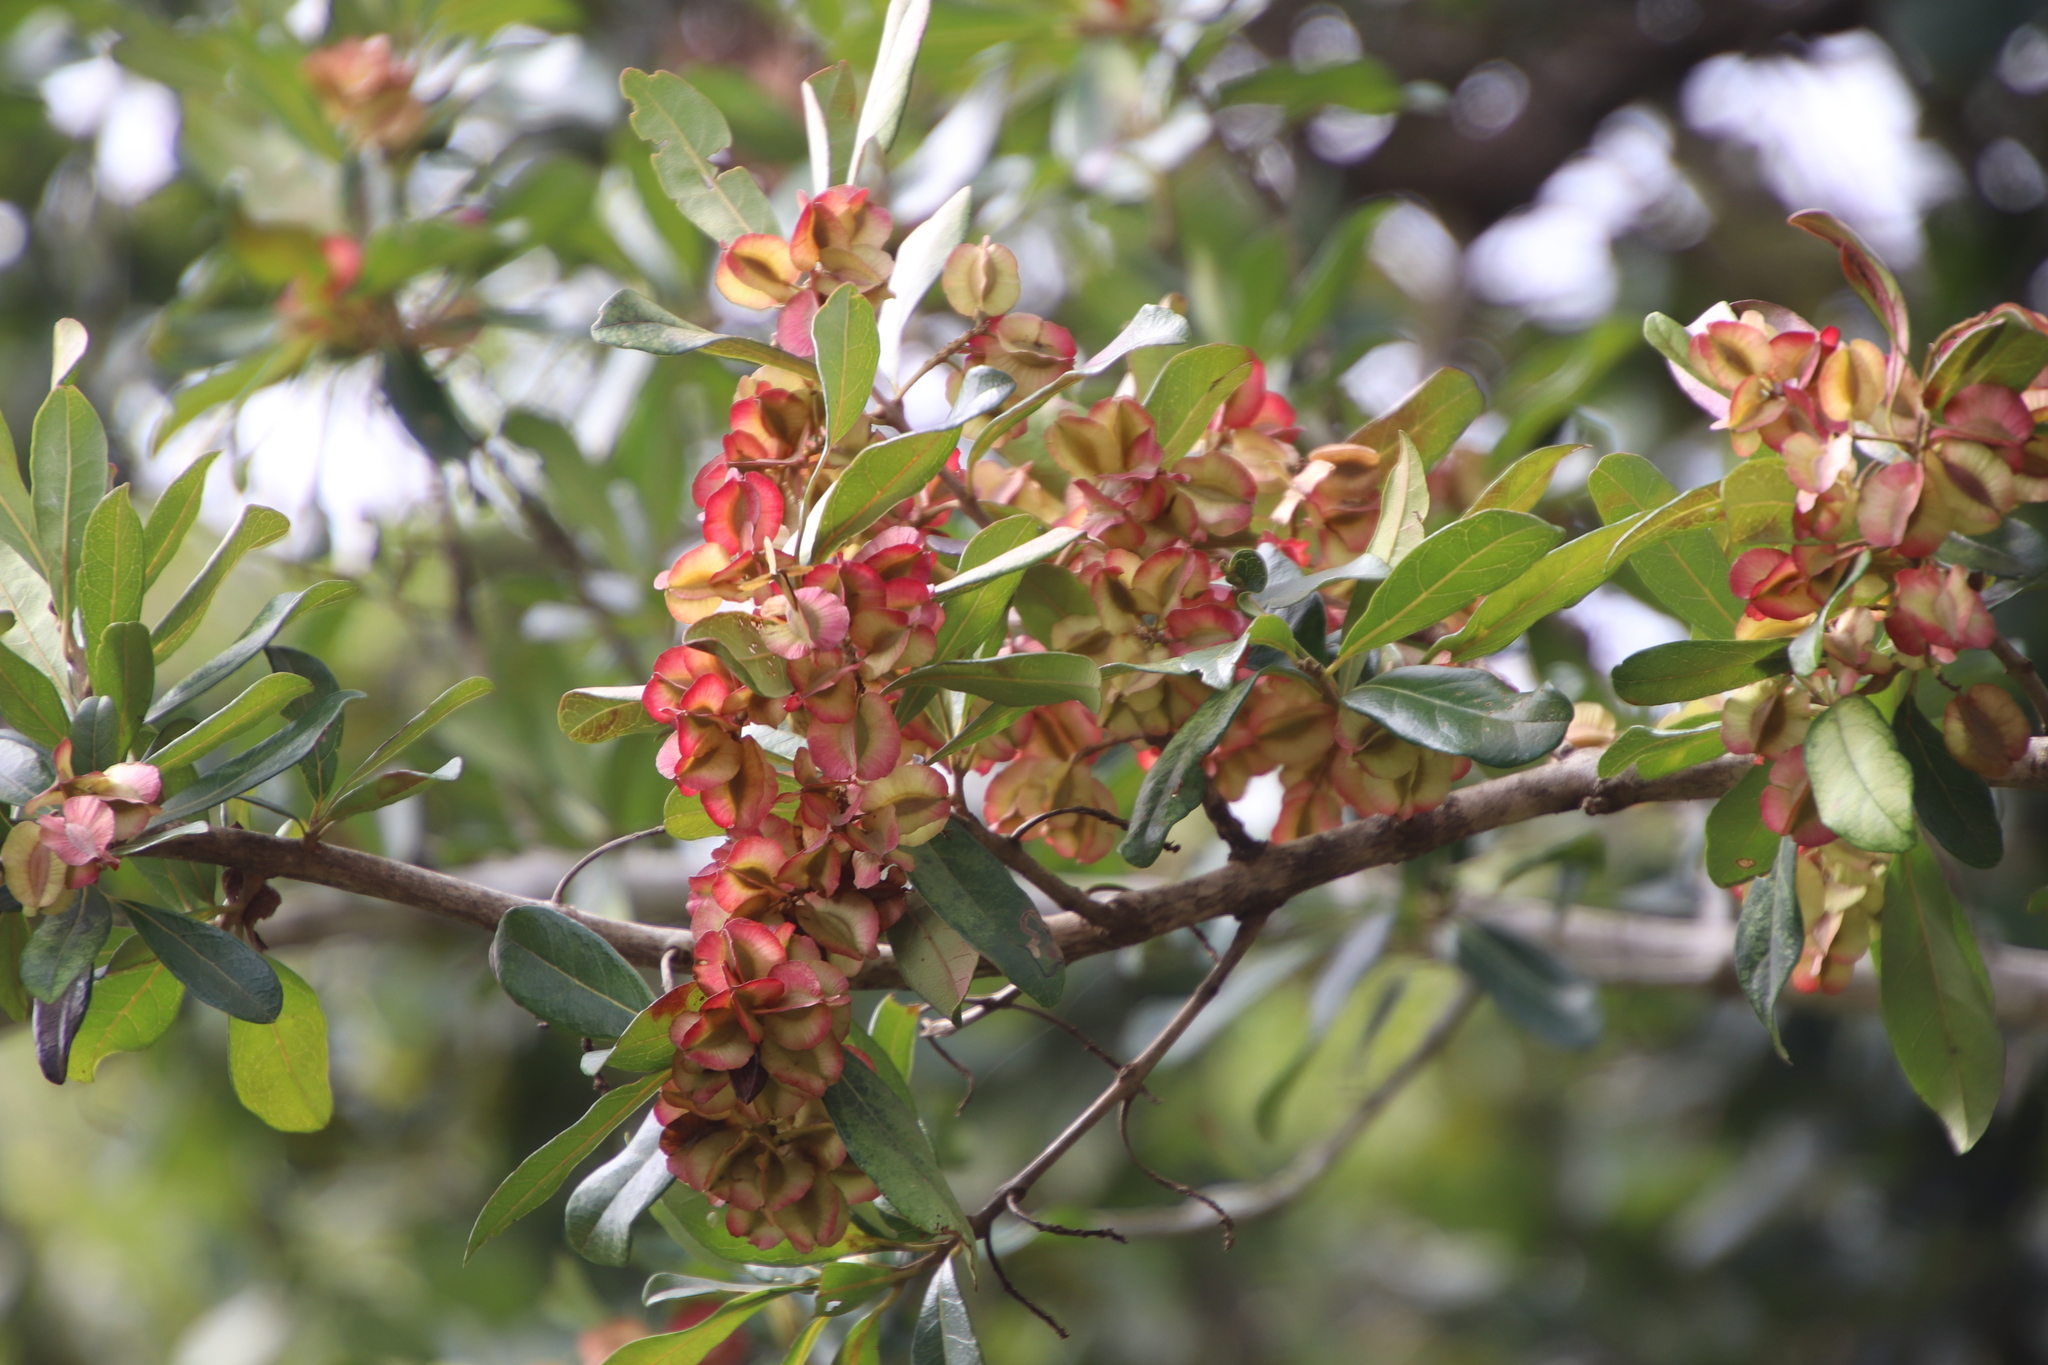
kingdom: Plantae
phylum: Tracheophyta
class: Magnoliopsida
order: Myrtales
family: Combretaceae
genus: Combretum
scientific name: Combretum kraussii
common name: Forest bushwillow
